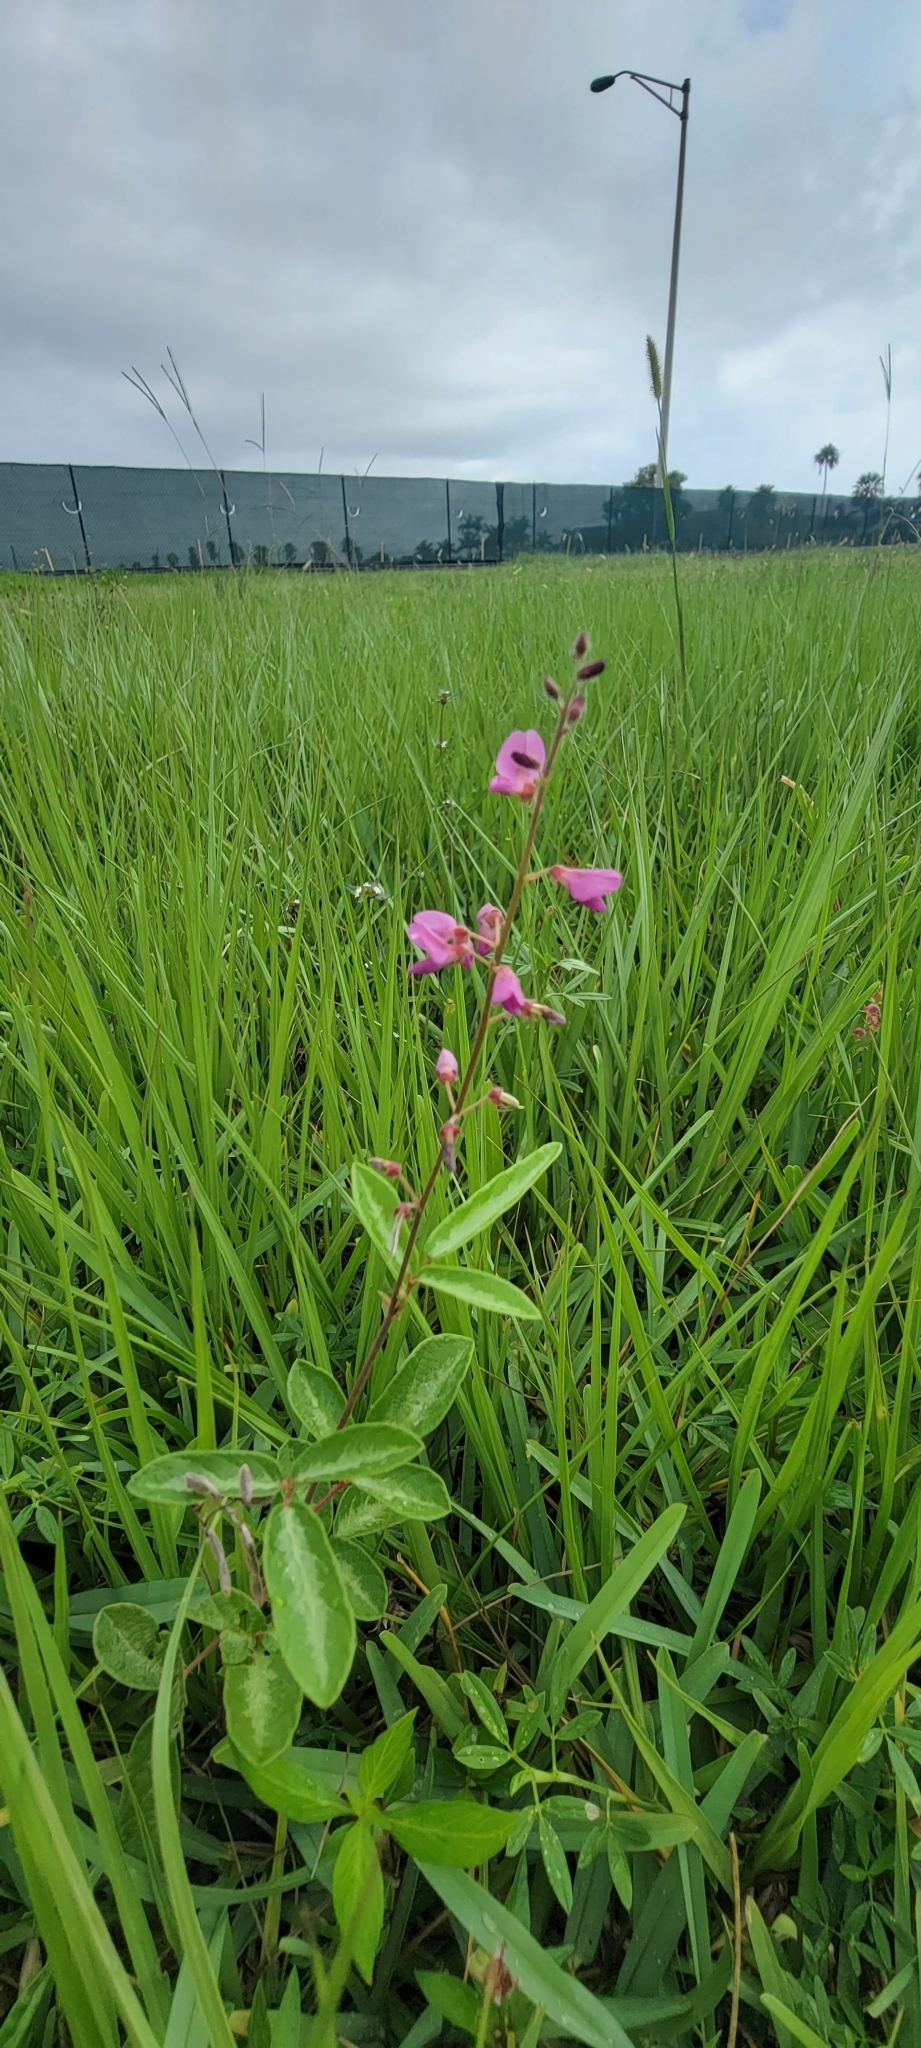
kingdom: Plantae
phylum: Tracheophyta
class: Magnoliopsida
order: Fabales
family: Fabaceae
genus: Desmodium
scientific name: Desmodium incanum
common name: Tickclover
